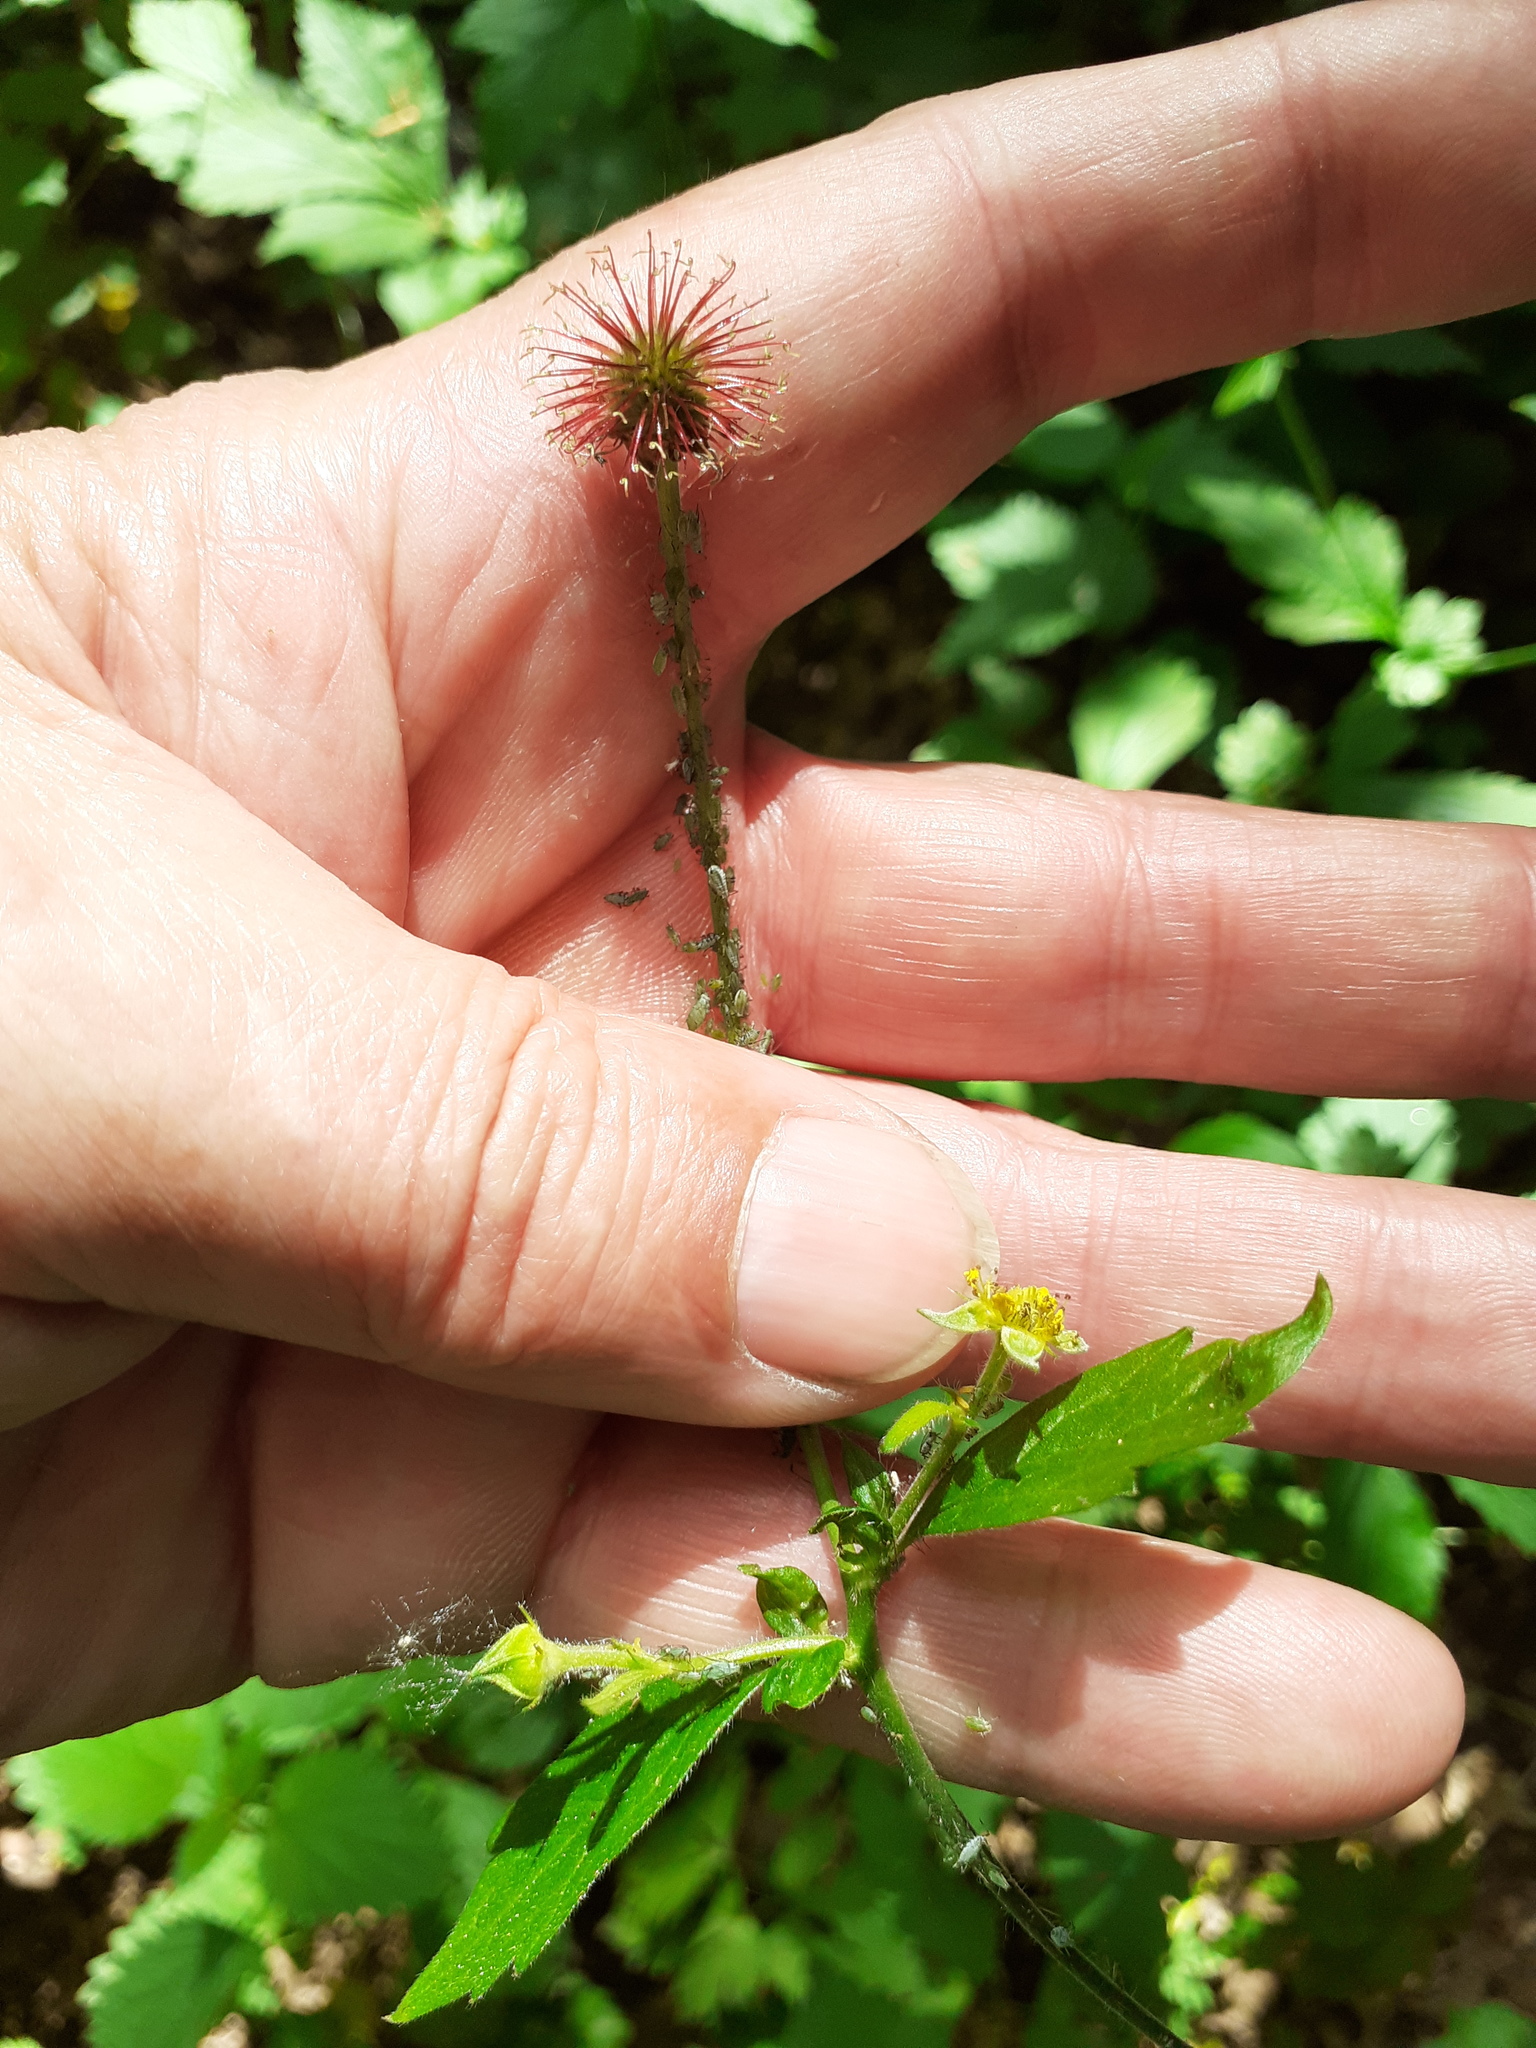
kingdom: Plantae
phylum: Tracheophyta
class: Magnoliopsida
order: Rosales
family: Rosaceae
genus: Geum
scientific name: Geum urbanum
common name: Wood avens
